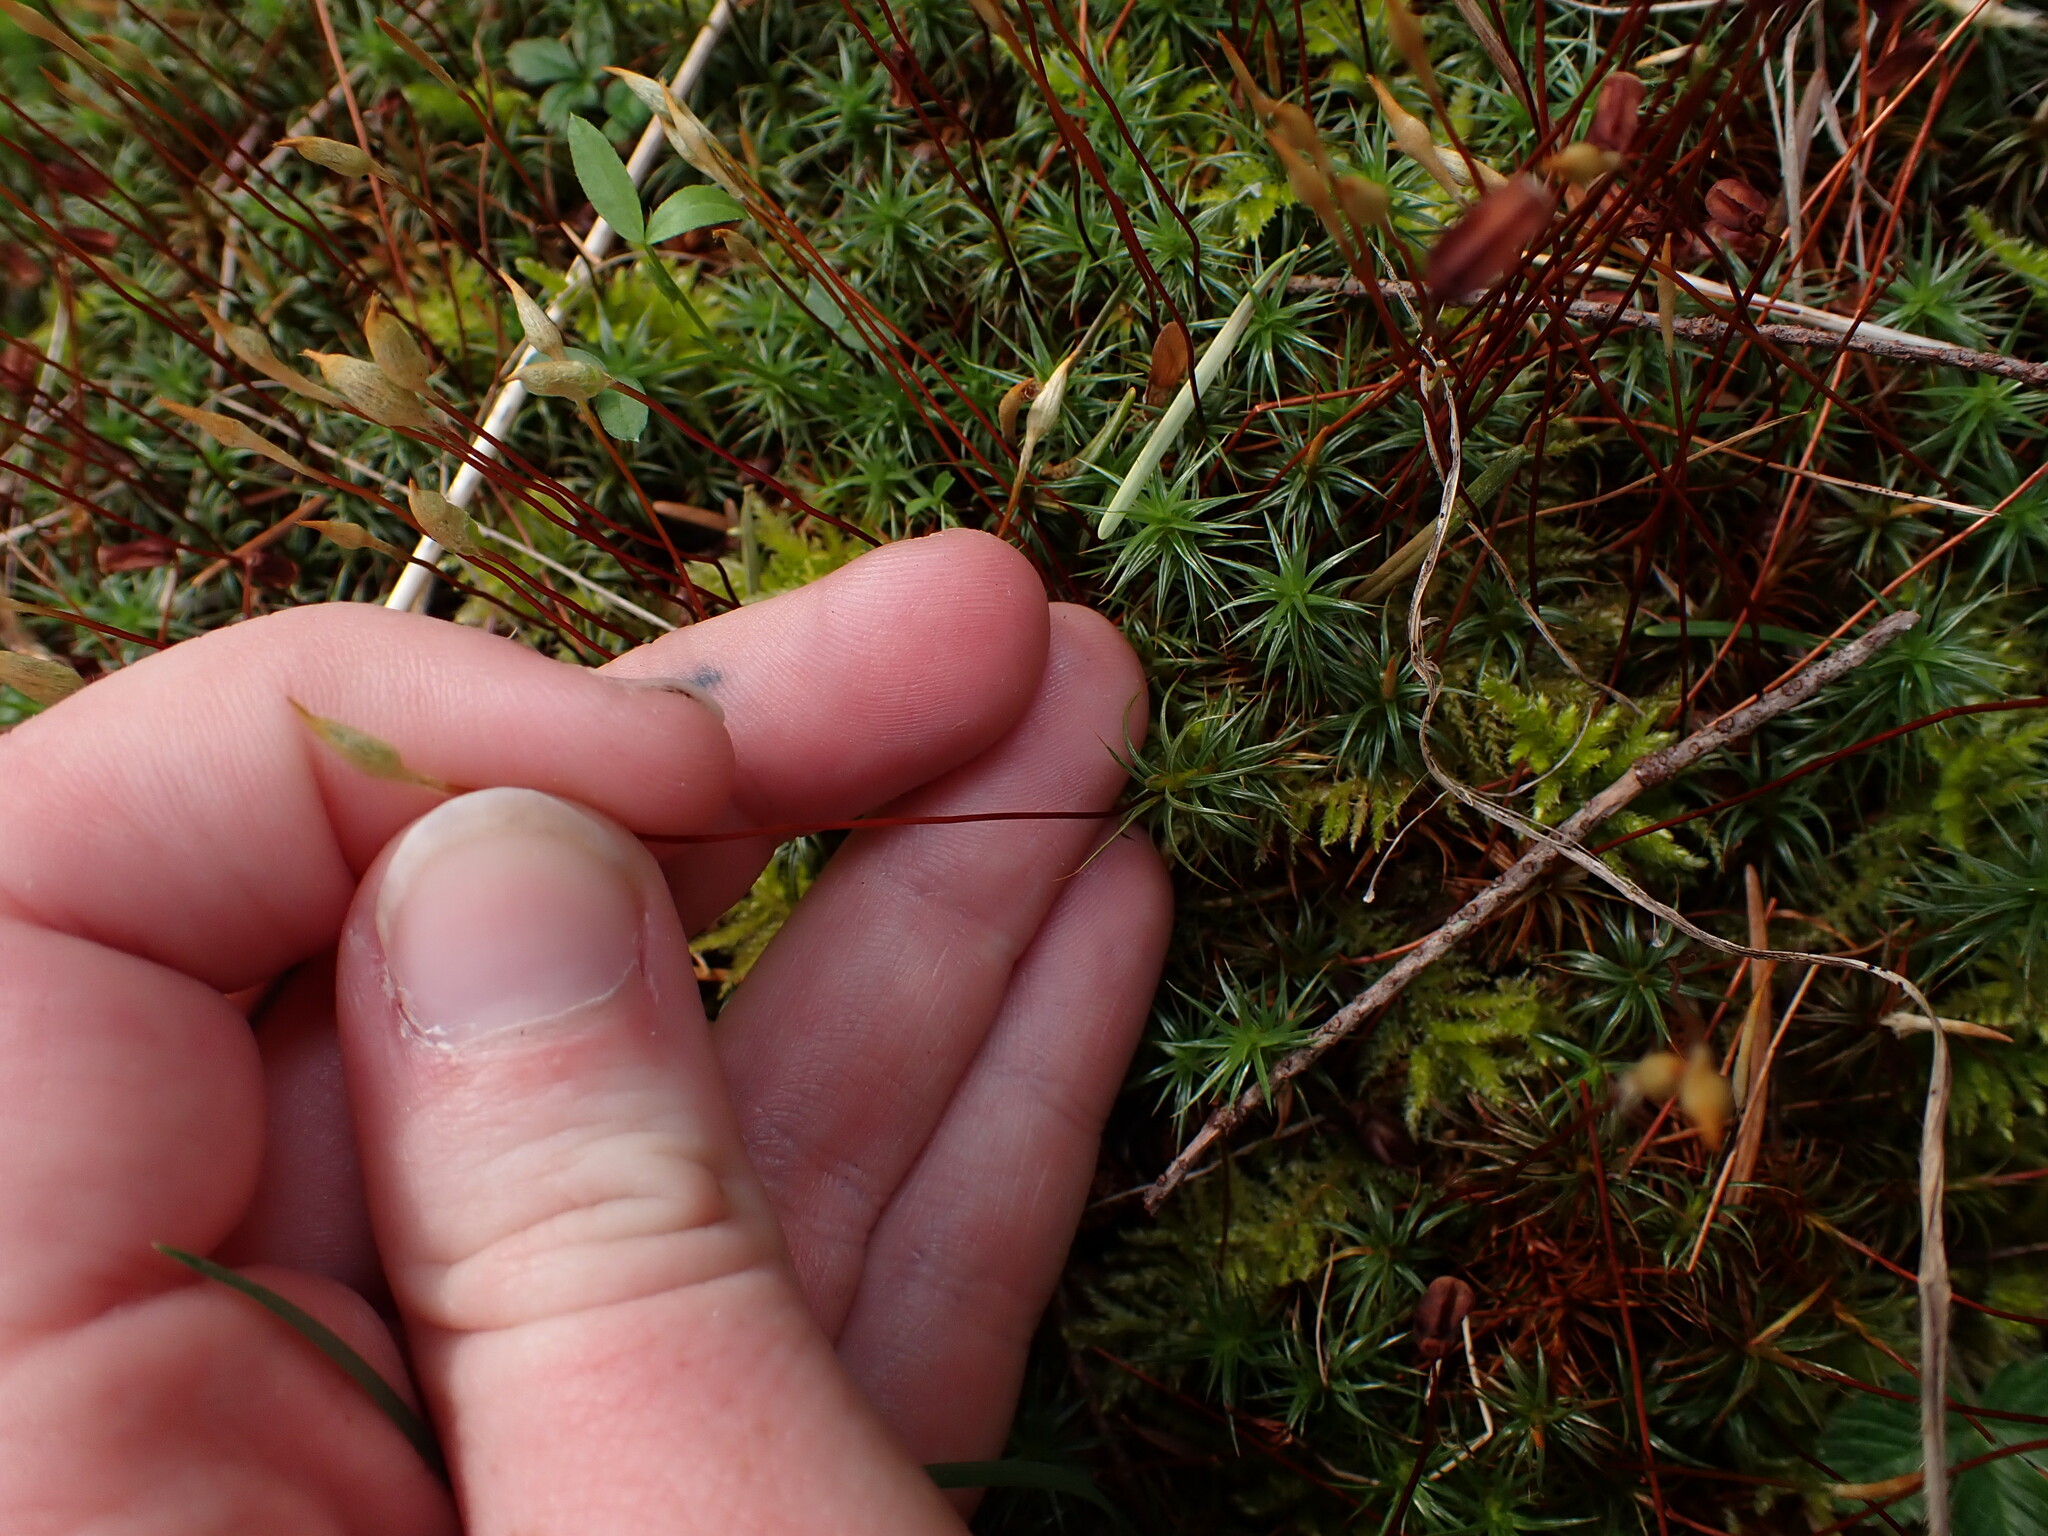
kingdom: Plantae
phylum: Bryophyta
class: Polytrichopsida
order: Polytrichales
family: Polytrichaceae
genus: Polytrichum
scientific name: Polytrichum juniperinum
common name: Juniper haircap moss
